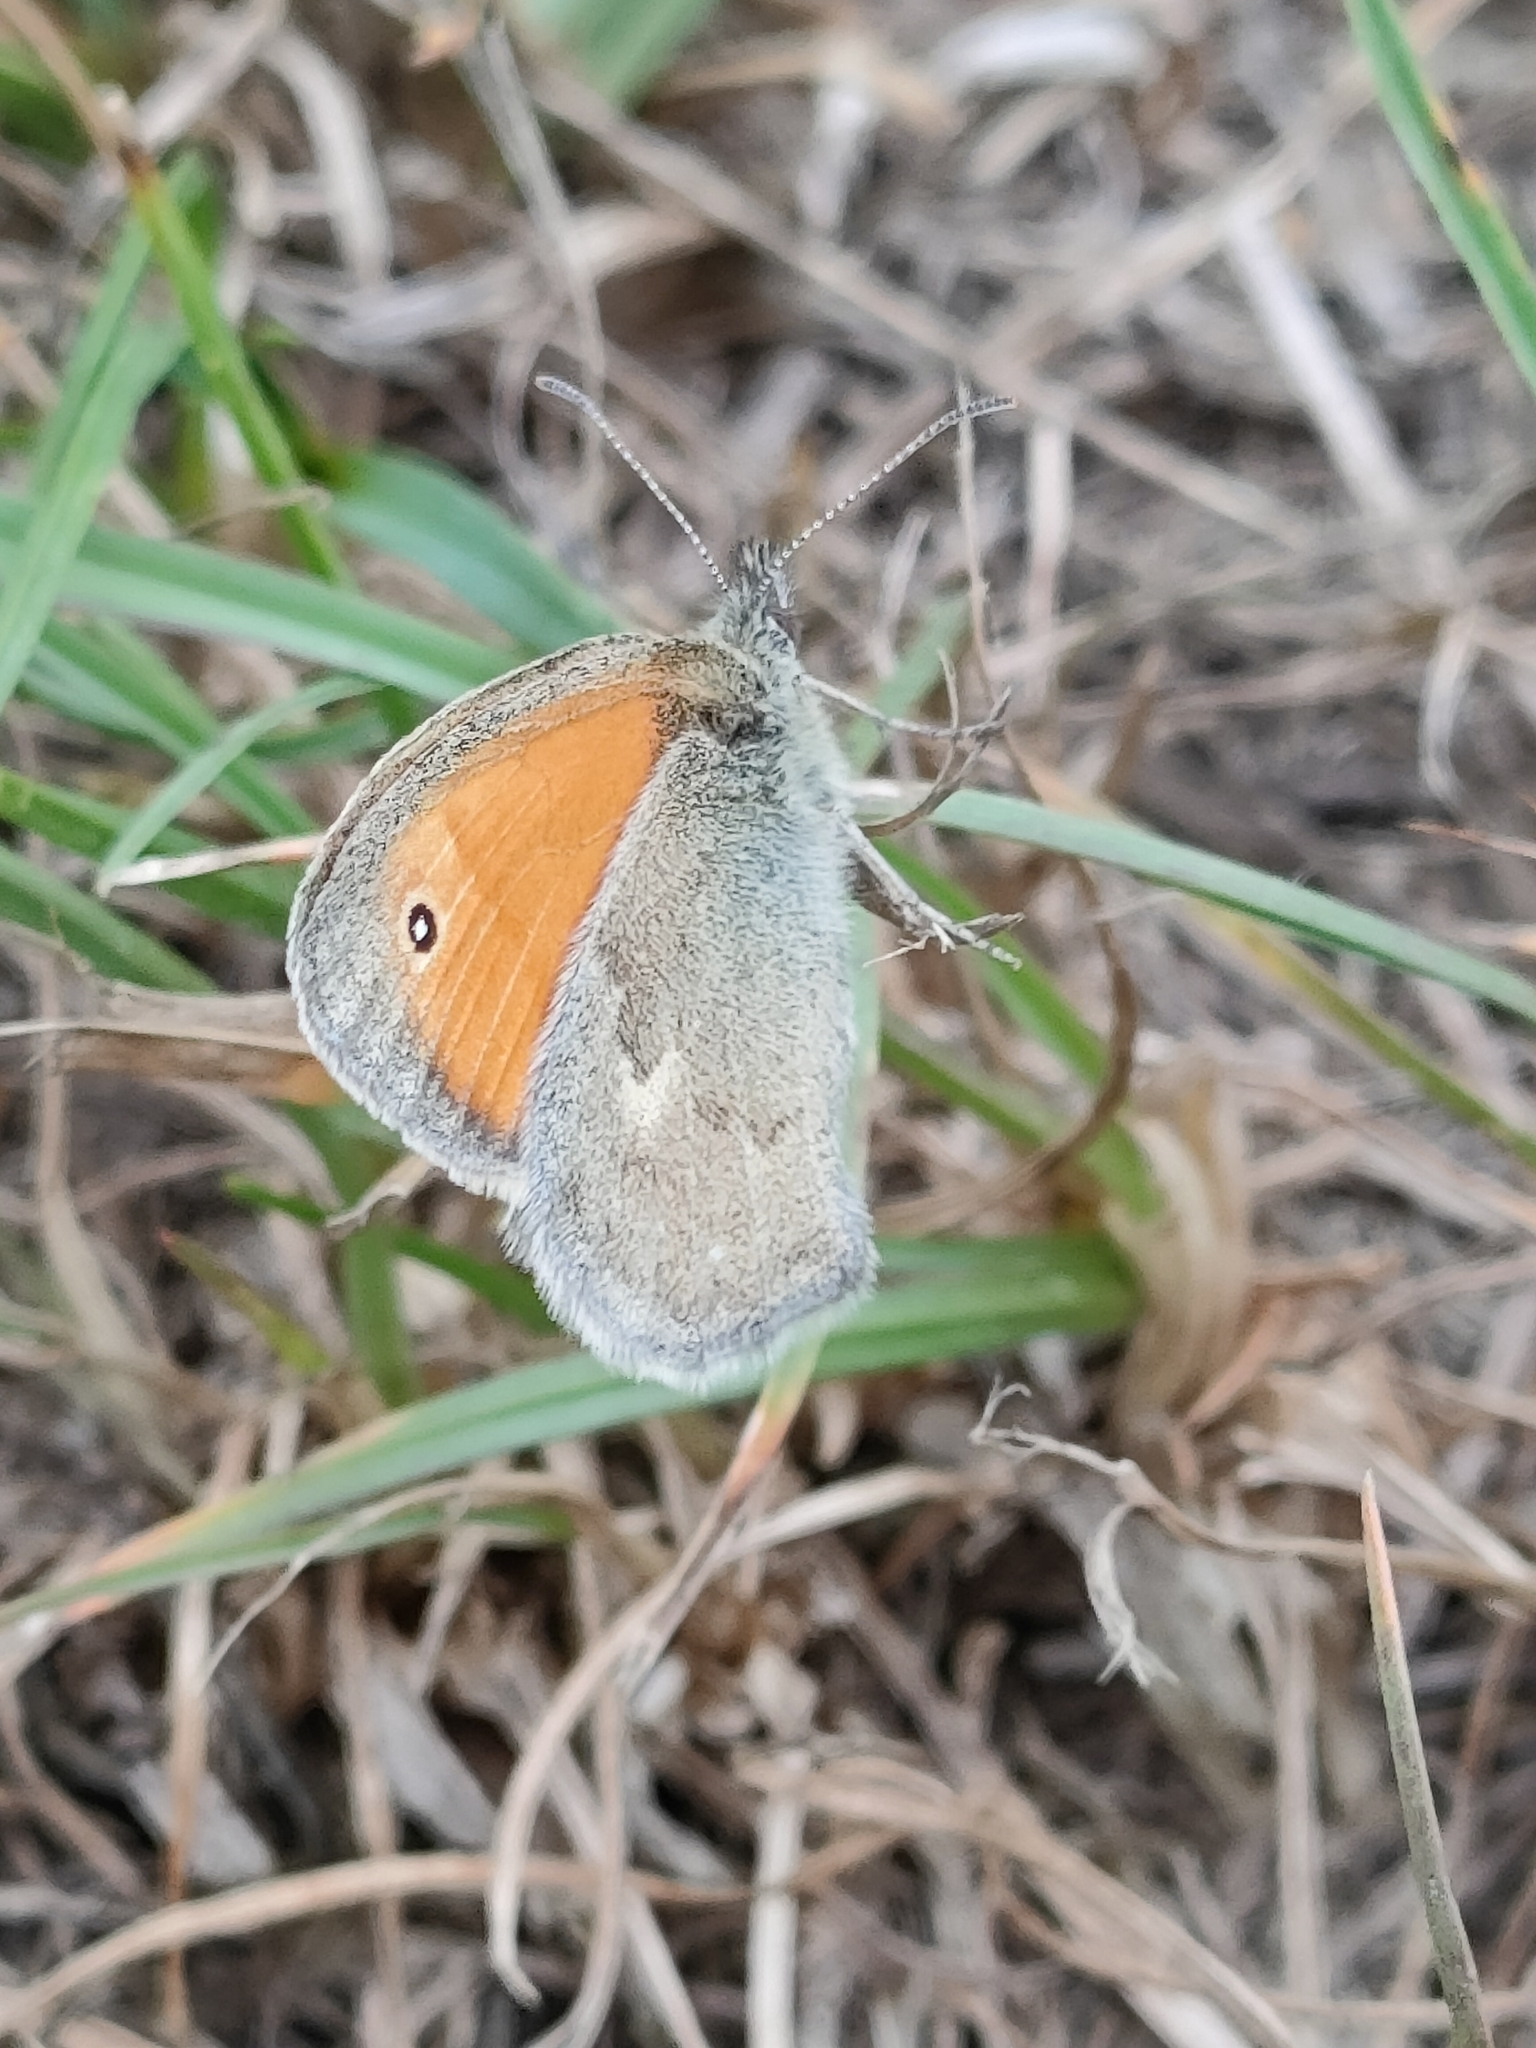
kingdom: Animalia
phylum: Arthropoda
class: Insecta
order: Lepidoptera
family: Nymphalidae
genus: Coenonympha
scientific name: Coenonympha pamphilus
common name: Small heath
